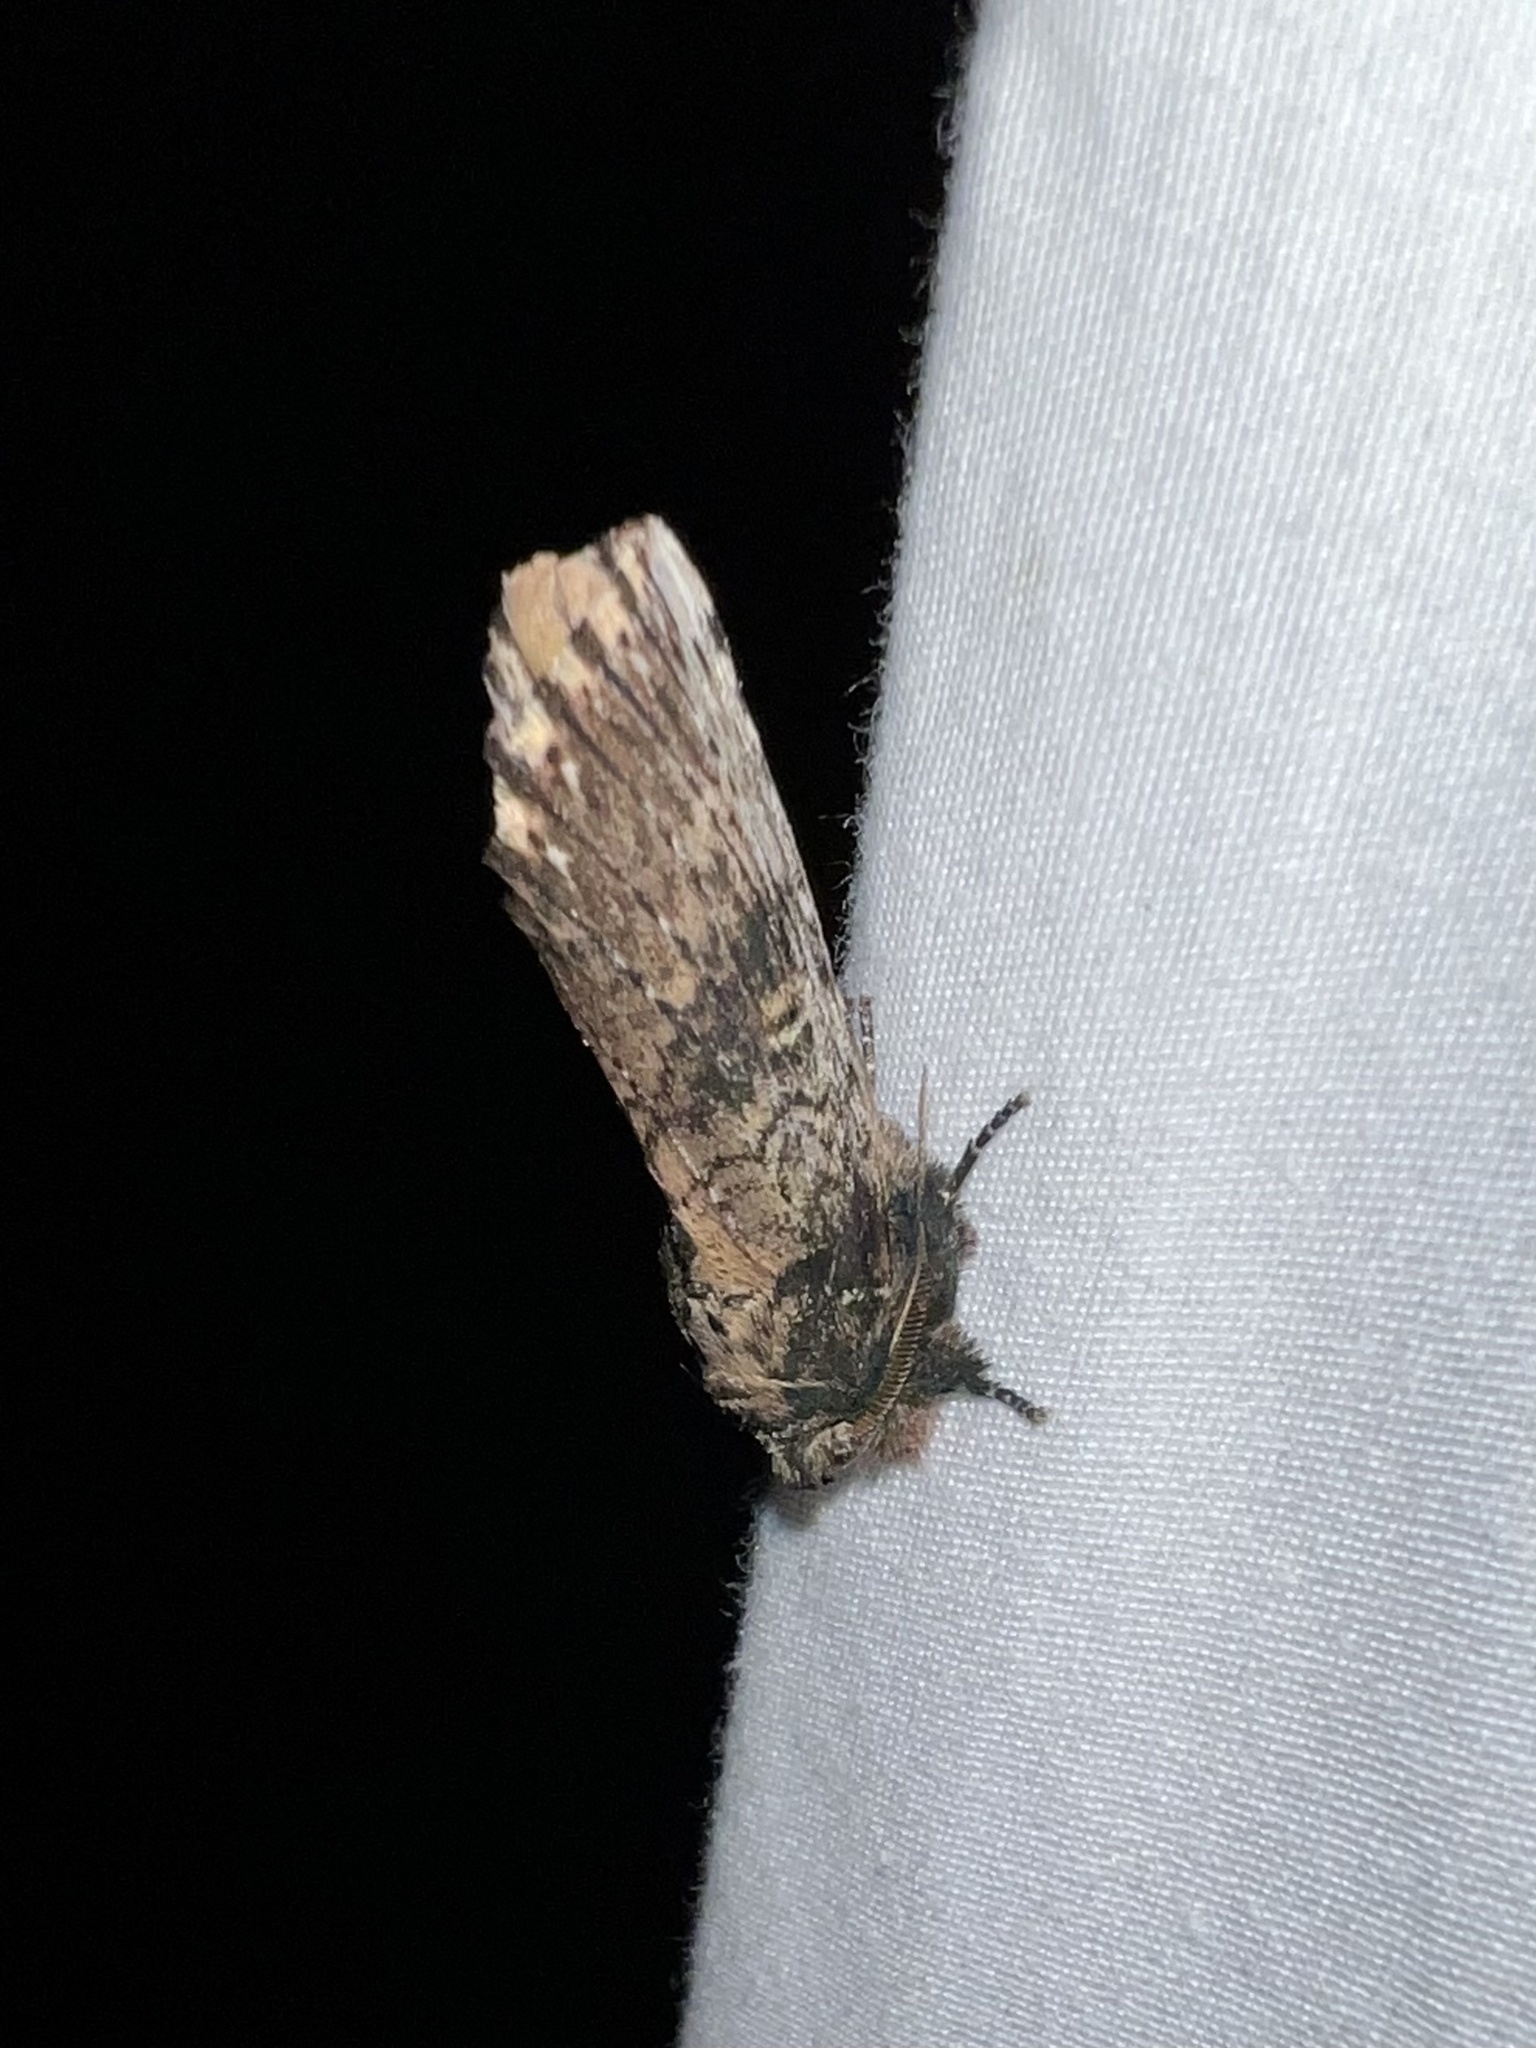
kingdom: Animalia
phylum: Arthropoda
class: Insecta
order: Lepidoptera
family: Notodontidae
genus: Schizura
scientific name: Schizura ipomaeae
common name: Morning-glory prominent
